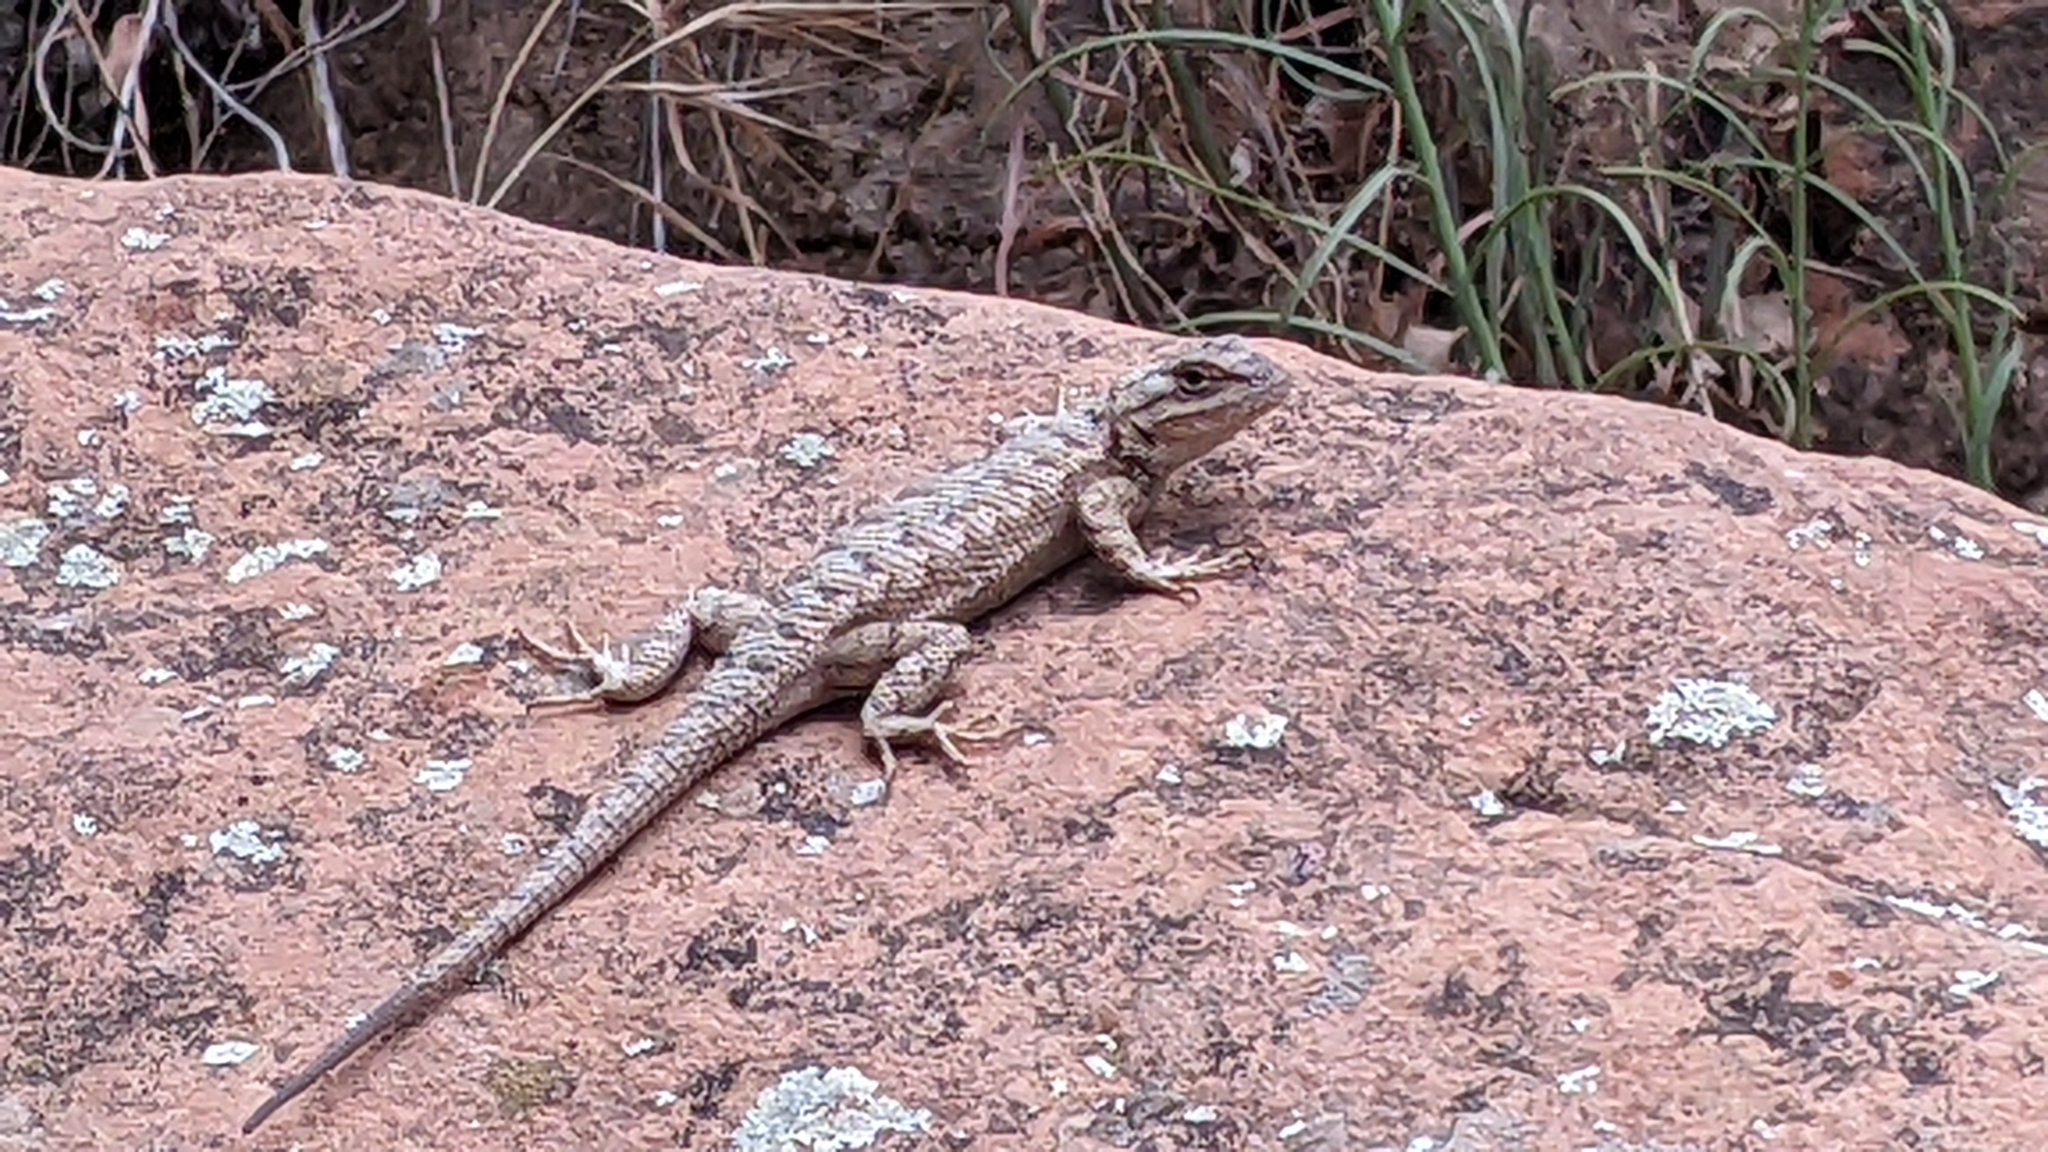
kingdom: Animalia
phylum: Chordata
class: Squamata
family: Phrynosomatidae
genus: Sceloporus
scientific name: Sceloporus tristichus
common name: Plateau fence lizard
